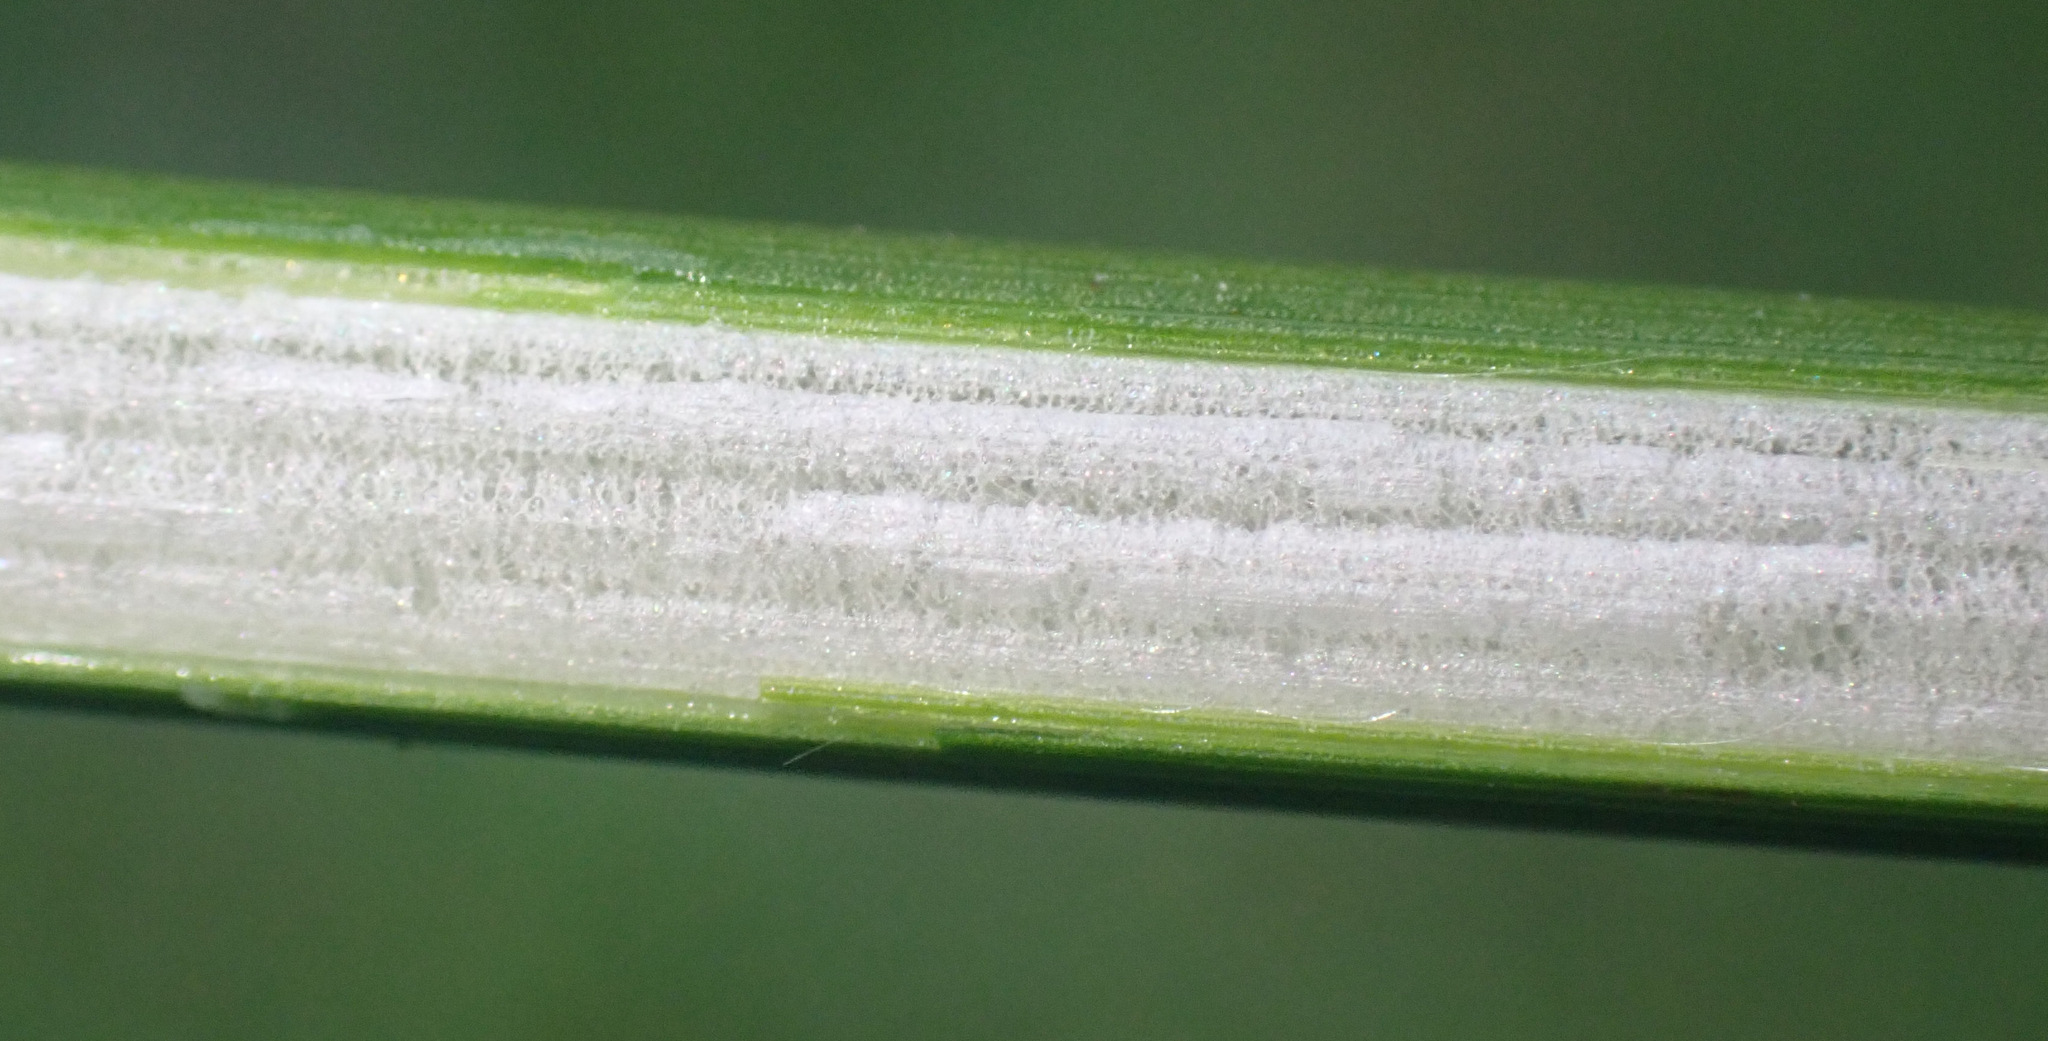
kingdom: Plantae
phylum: Tracheophyta
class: Liliopsida
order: Poales
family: Juncaceae
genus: Juncus
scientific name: Juncus effusus
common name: Soft rush
